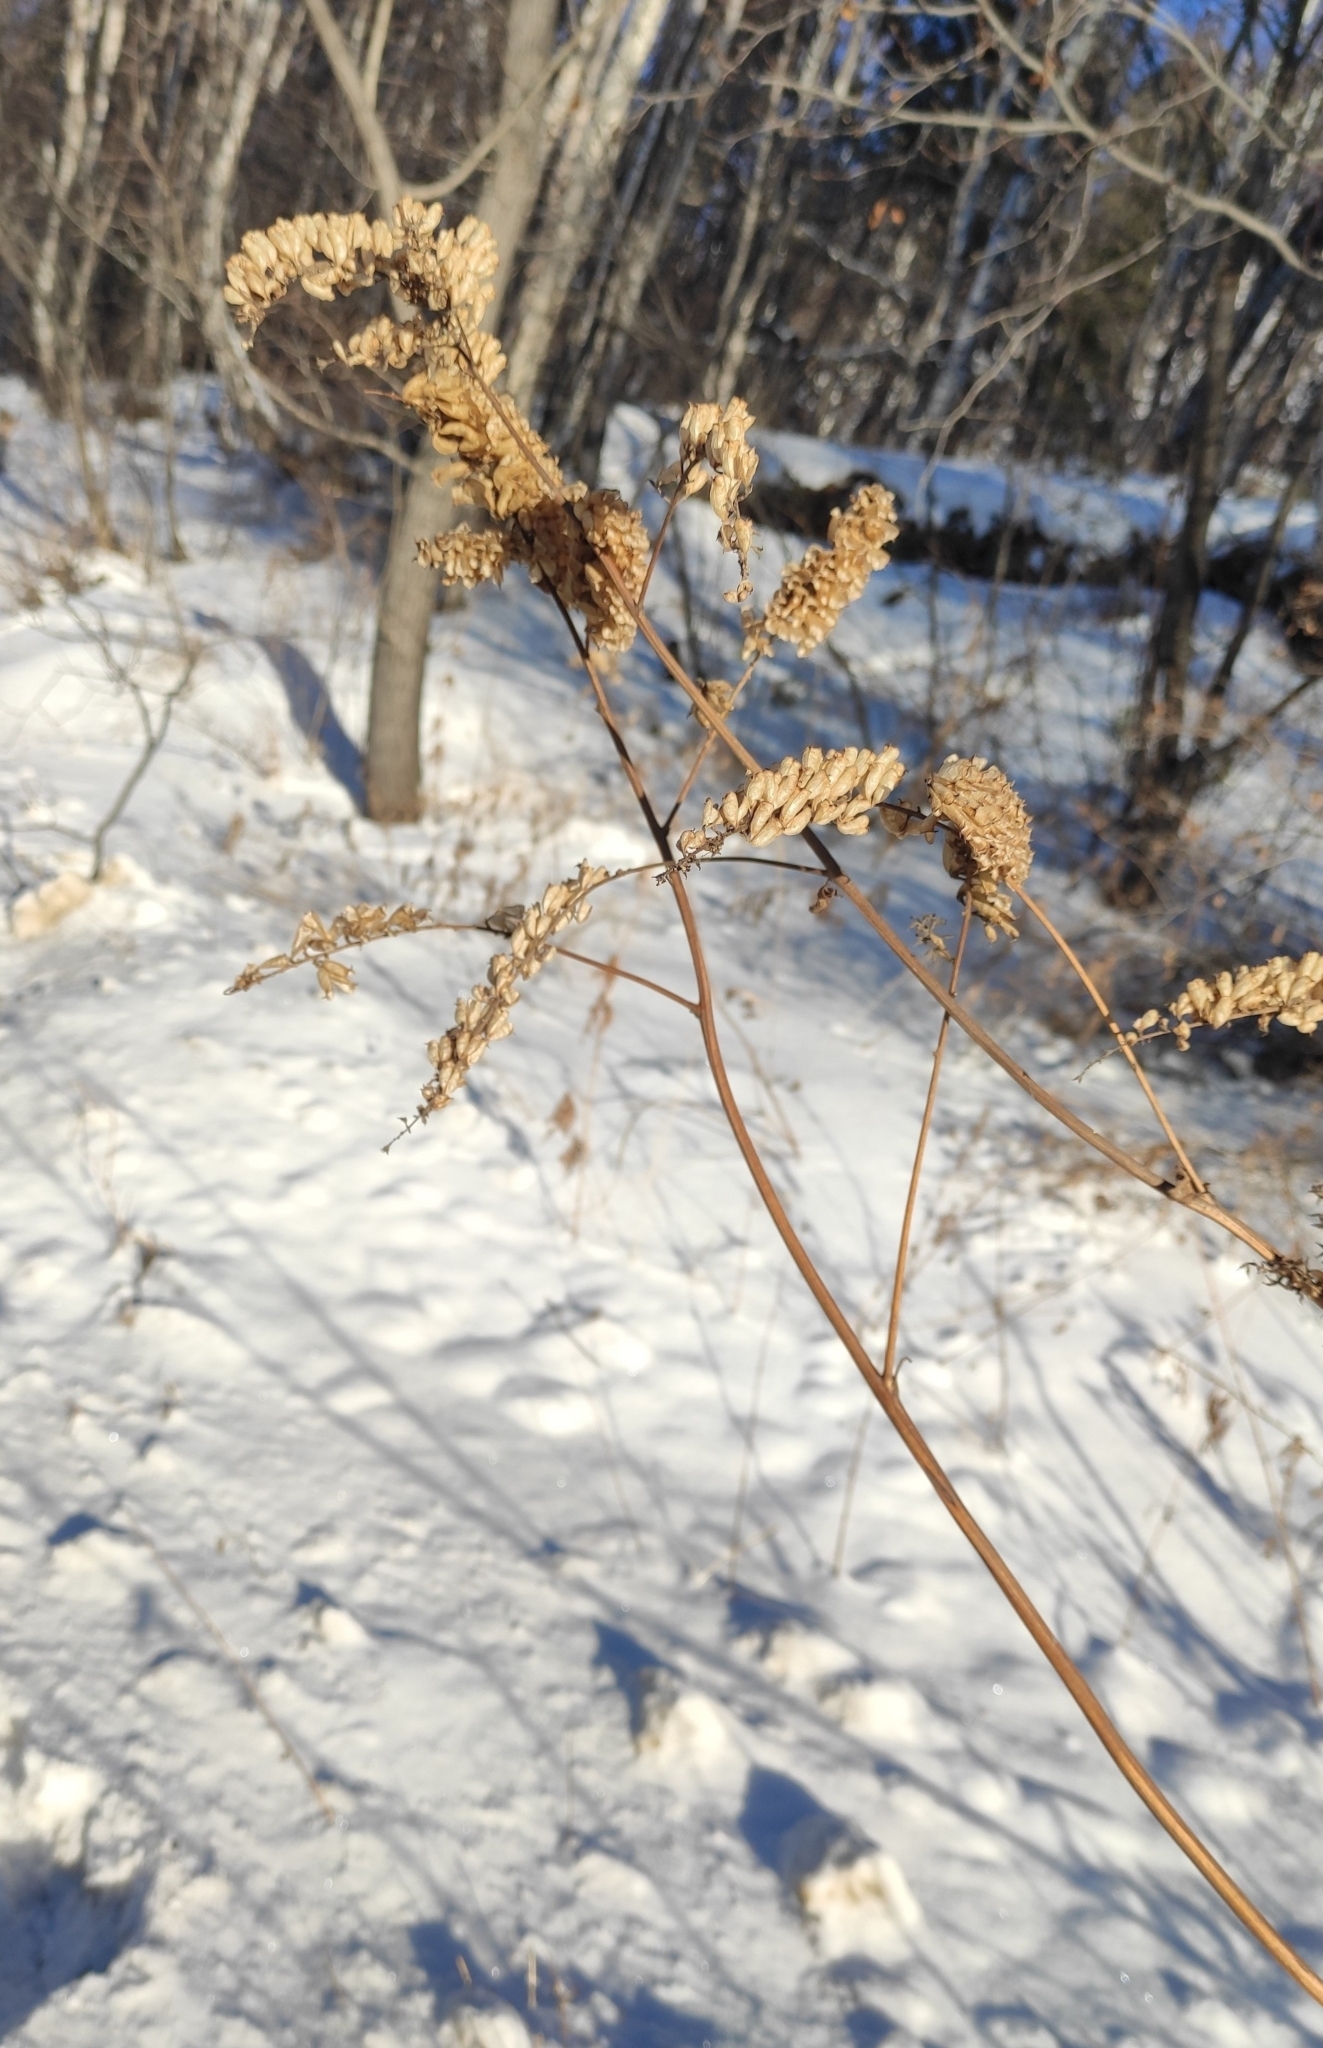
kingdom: Plantae
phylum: Tracheophyta
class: Magnoliopsida
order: Ranunculales
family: Ranunculaceae
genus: Actaea
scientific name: Actaea cimicifuga
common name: Chinese cimicifuga
